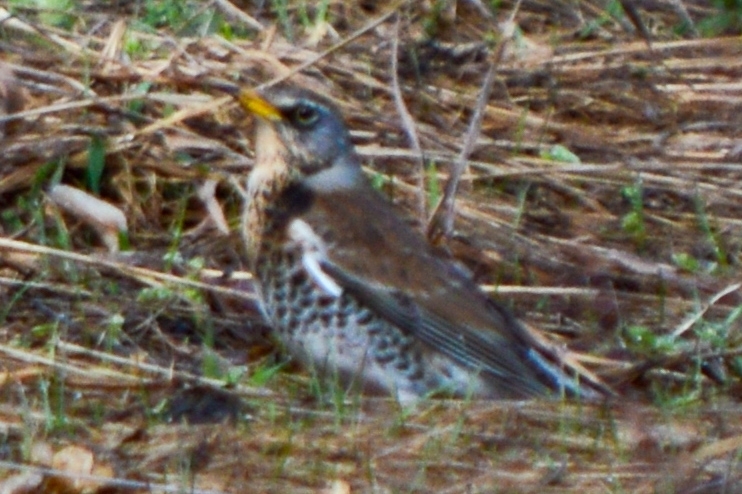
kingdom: Animalia
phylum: Chordata
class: Aves
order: Passeriformes
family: Turdidae
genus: Turdus
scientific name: Turdus pilaris
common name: Fieldfare
